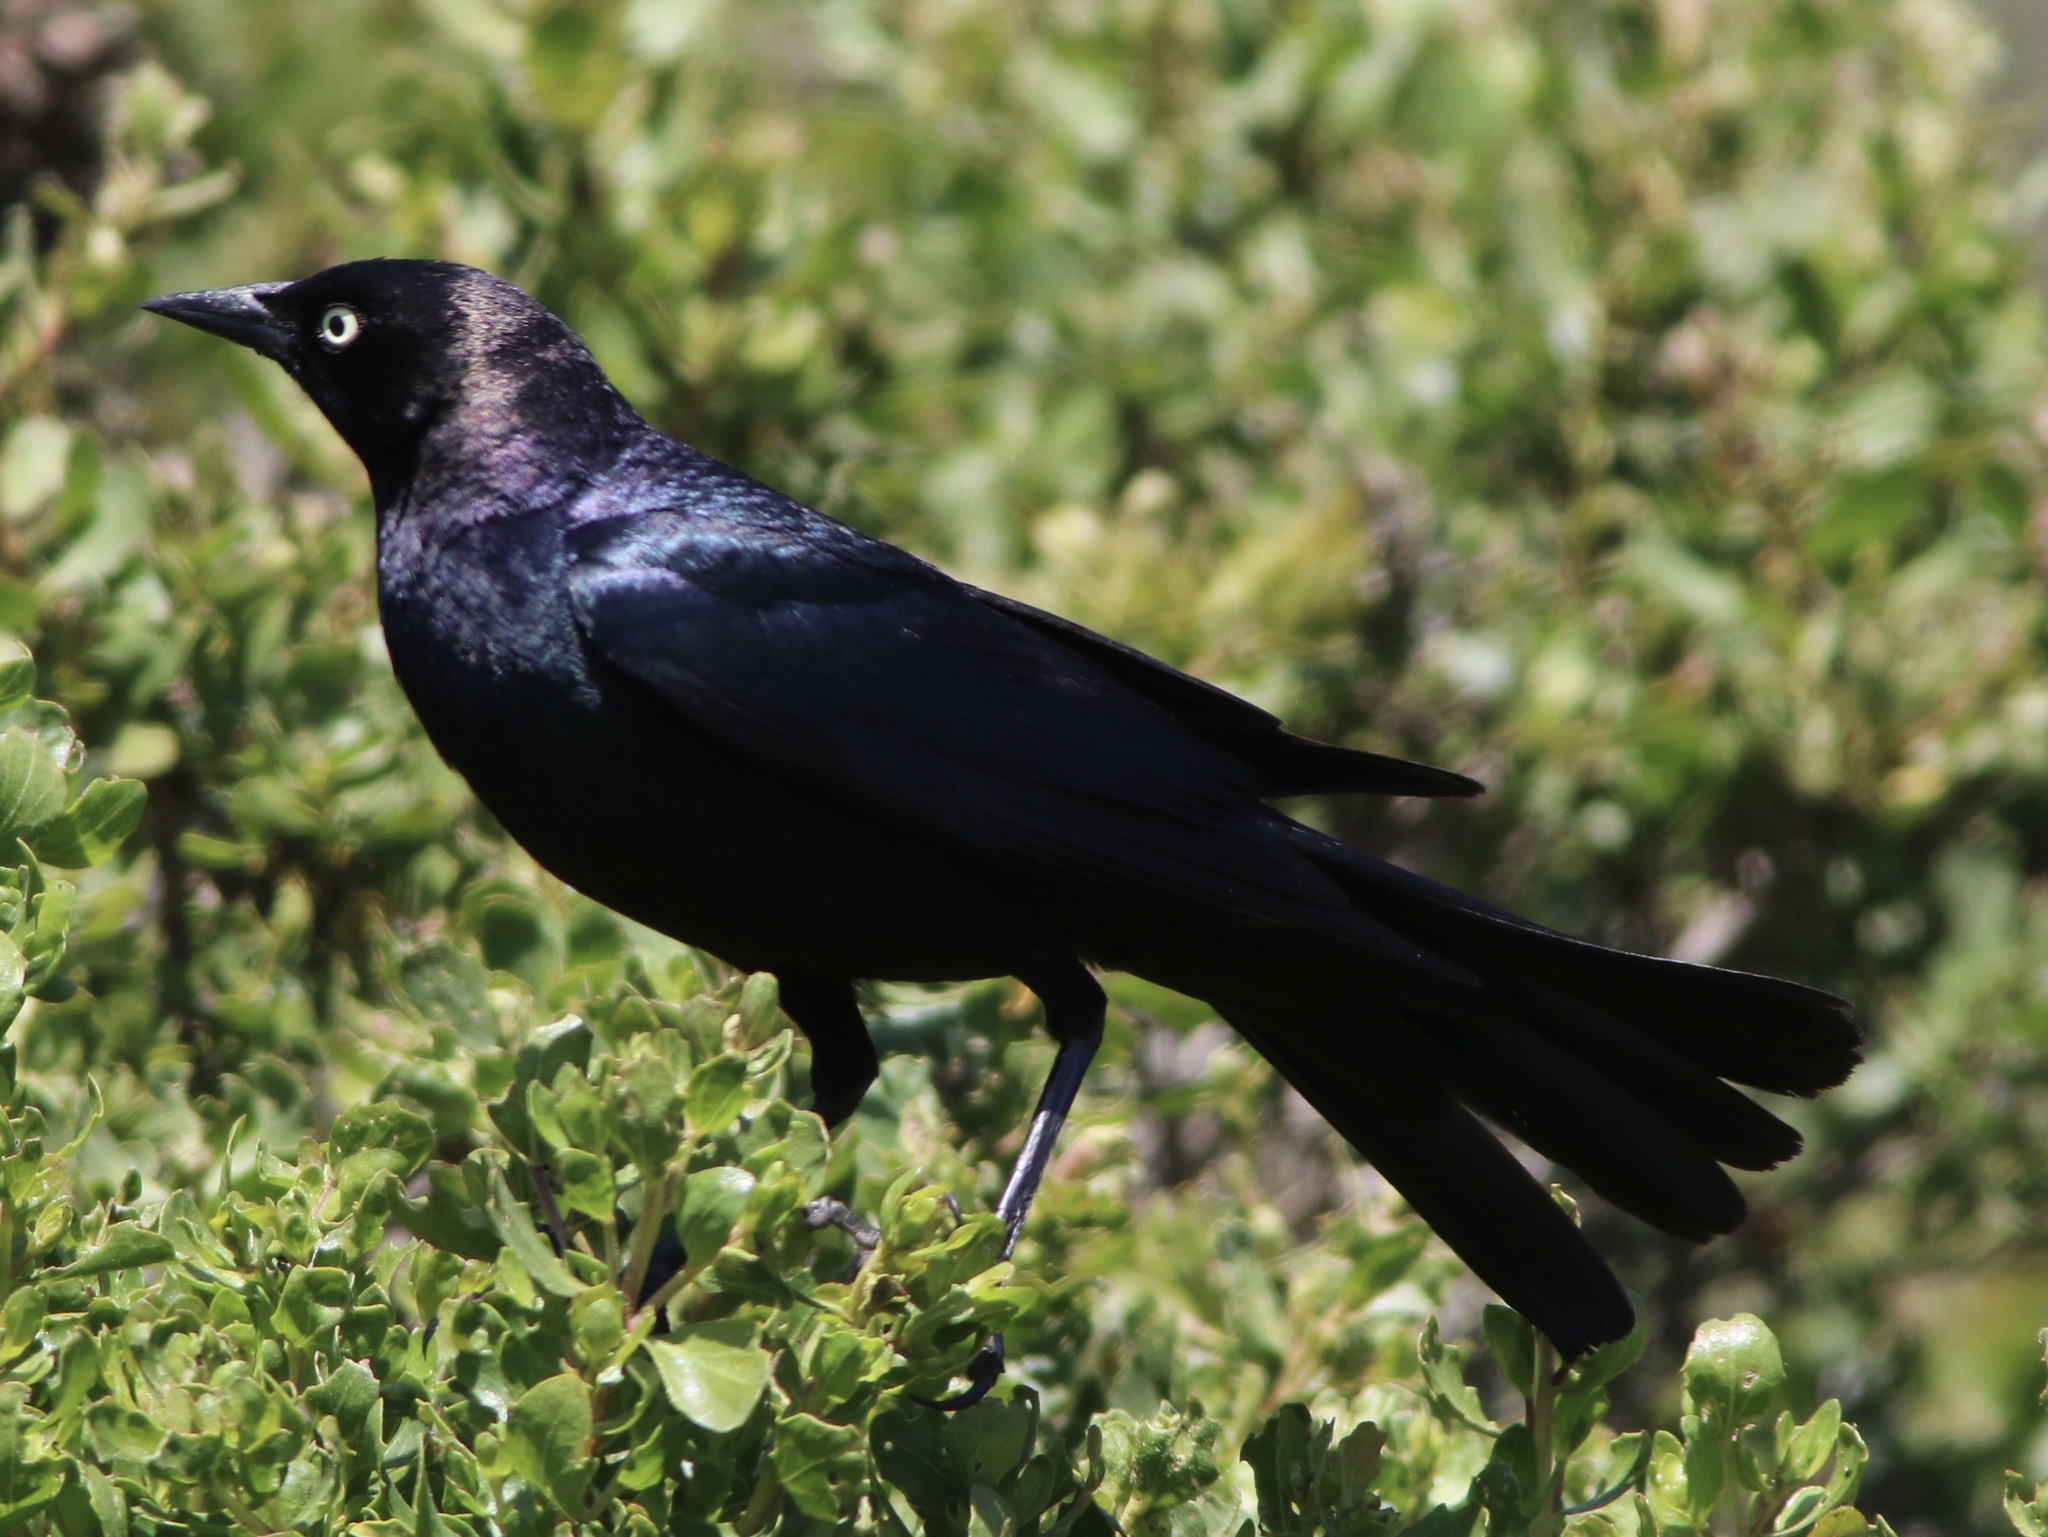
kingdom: Animalia
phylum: Chordata
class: Aves
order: Passeriformes
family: Icteridae
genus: Euphagus
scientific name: Euphagus cyanocephalus
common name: Brewer's blackbird
